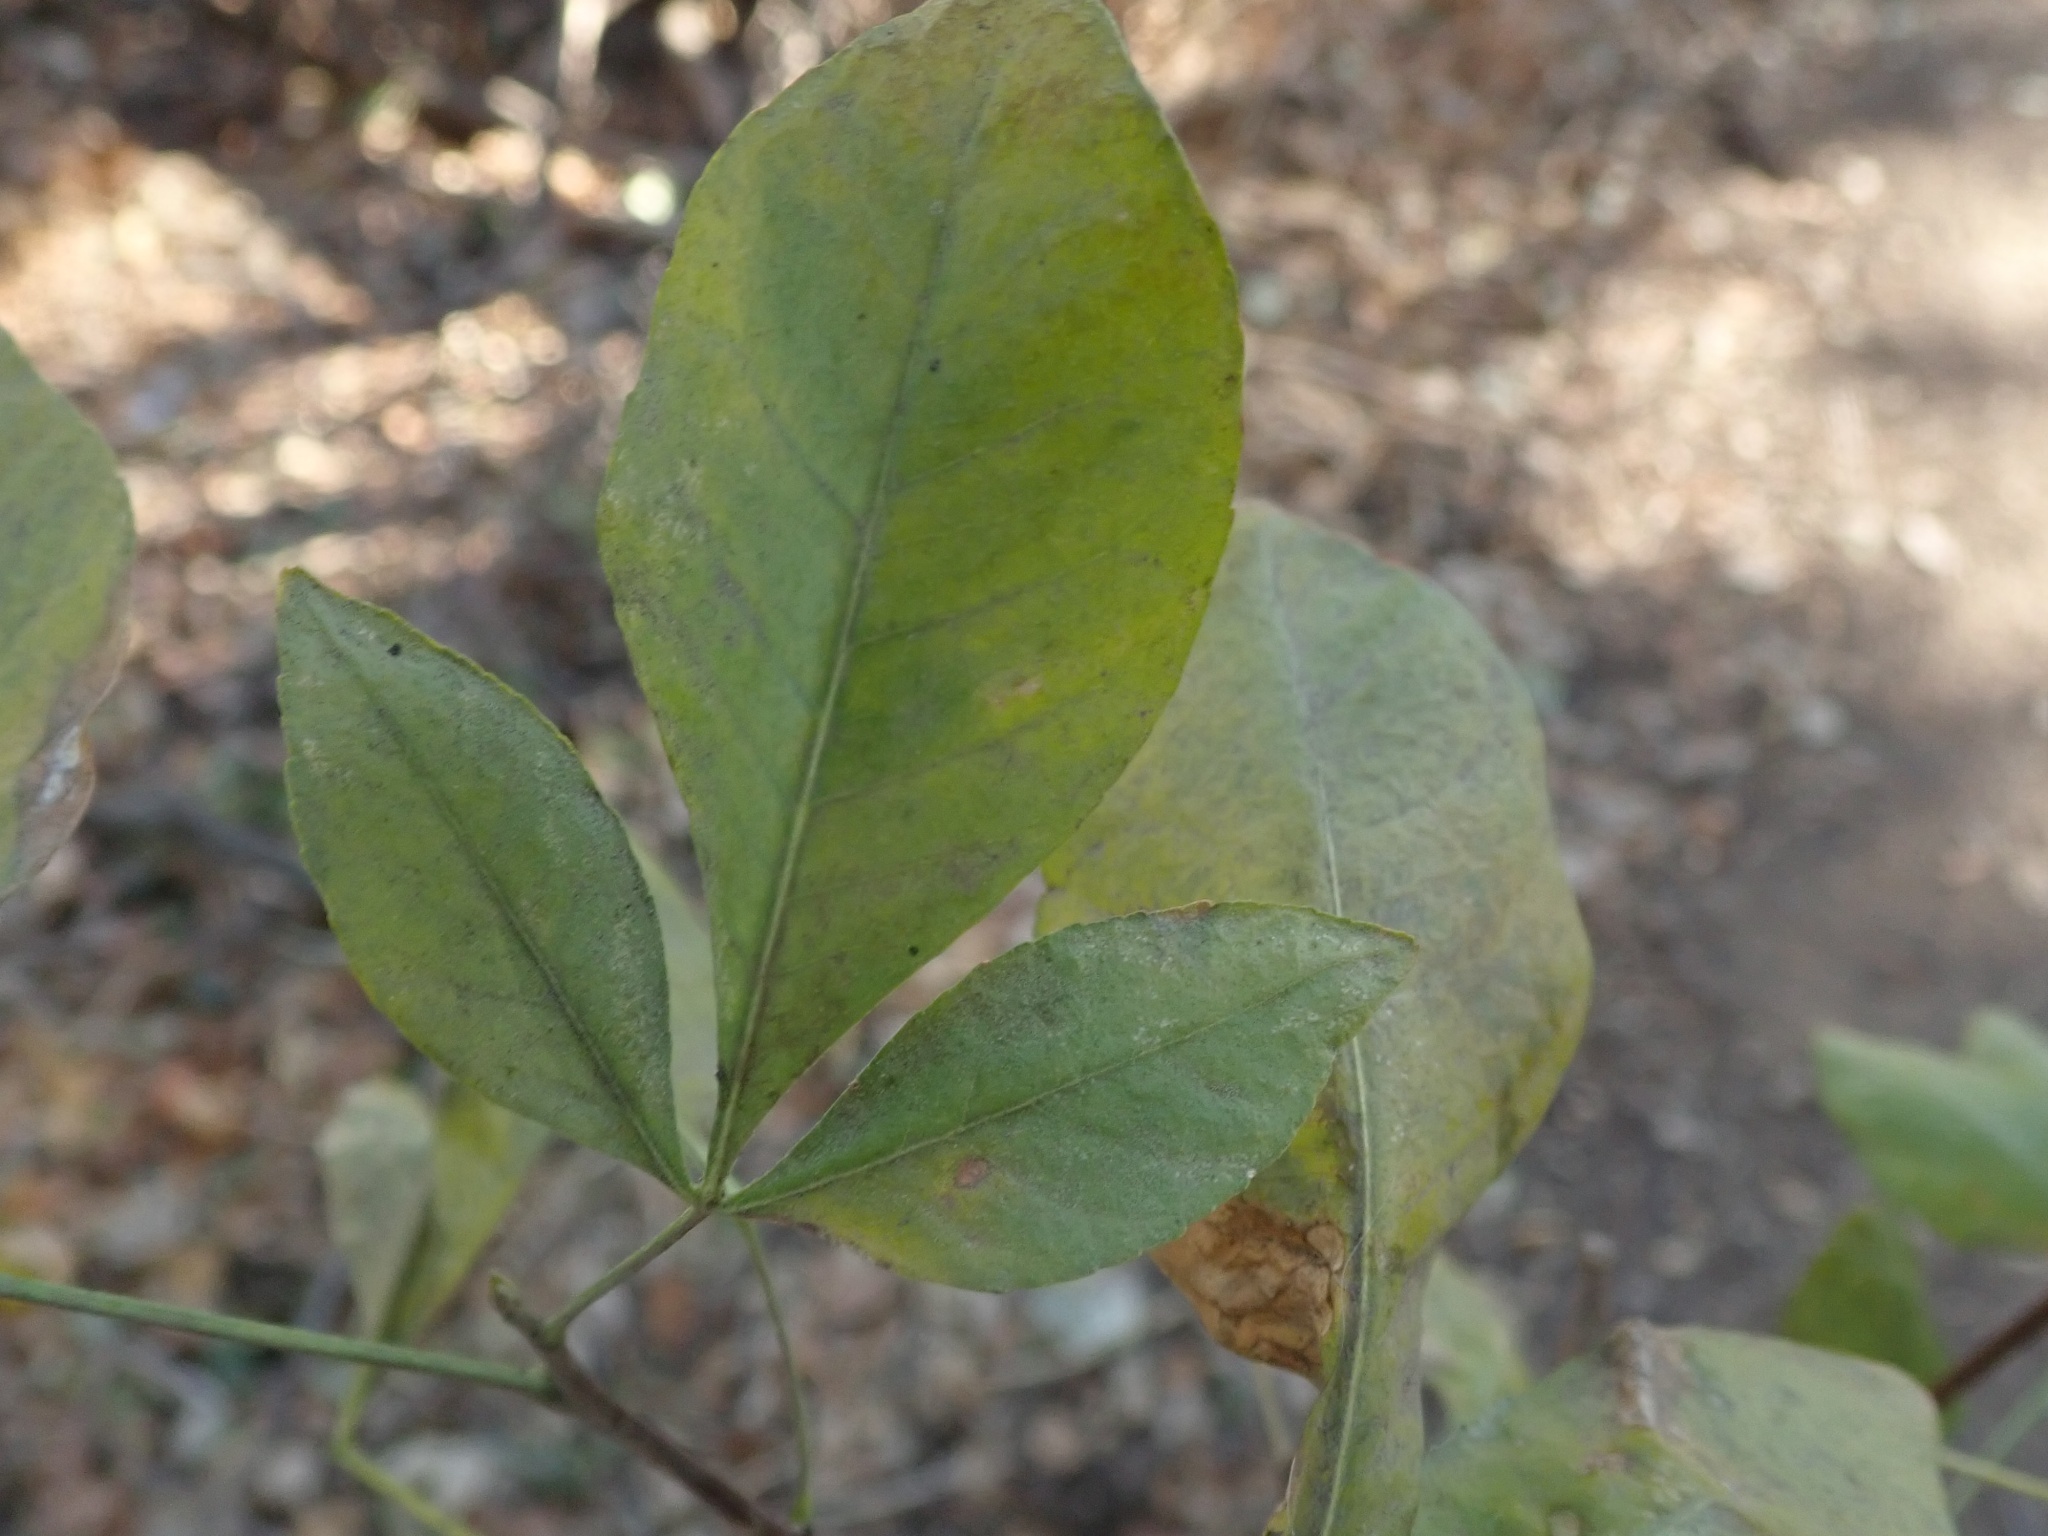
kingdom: Plantae
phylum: Tracheophyta
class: Magnoliopsida
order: Sapindales
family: Rutaceae
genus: Ptelea
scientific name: Ptelea crenulata
